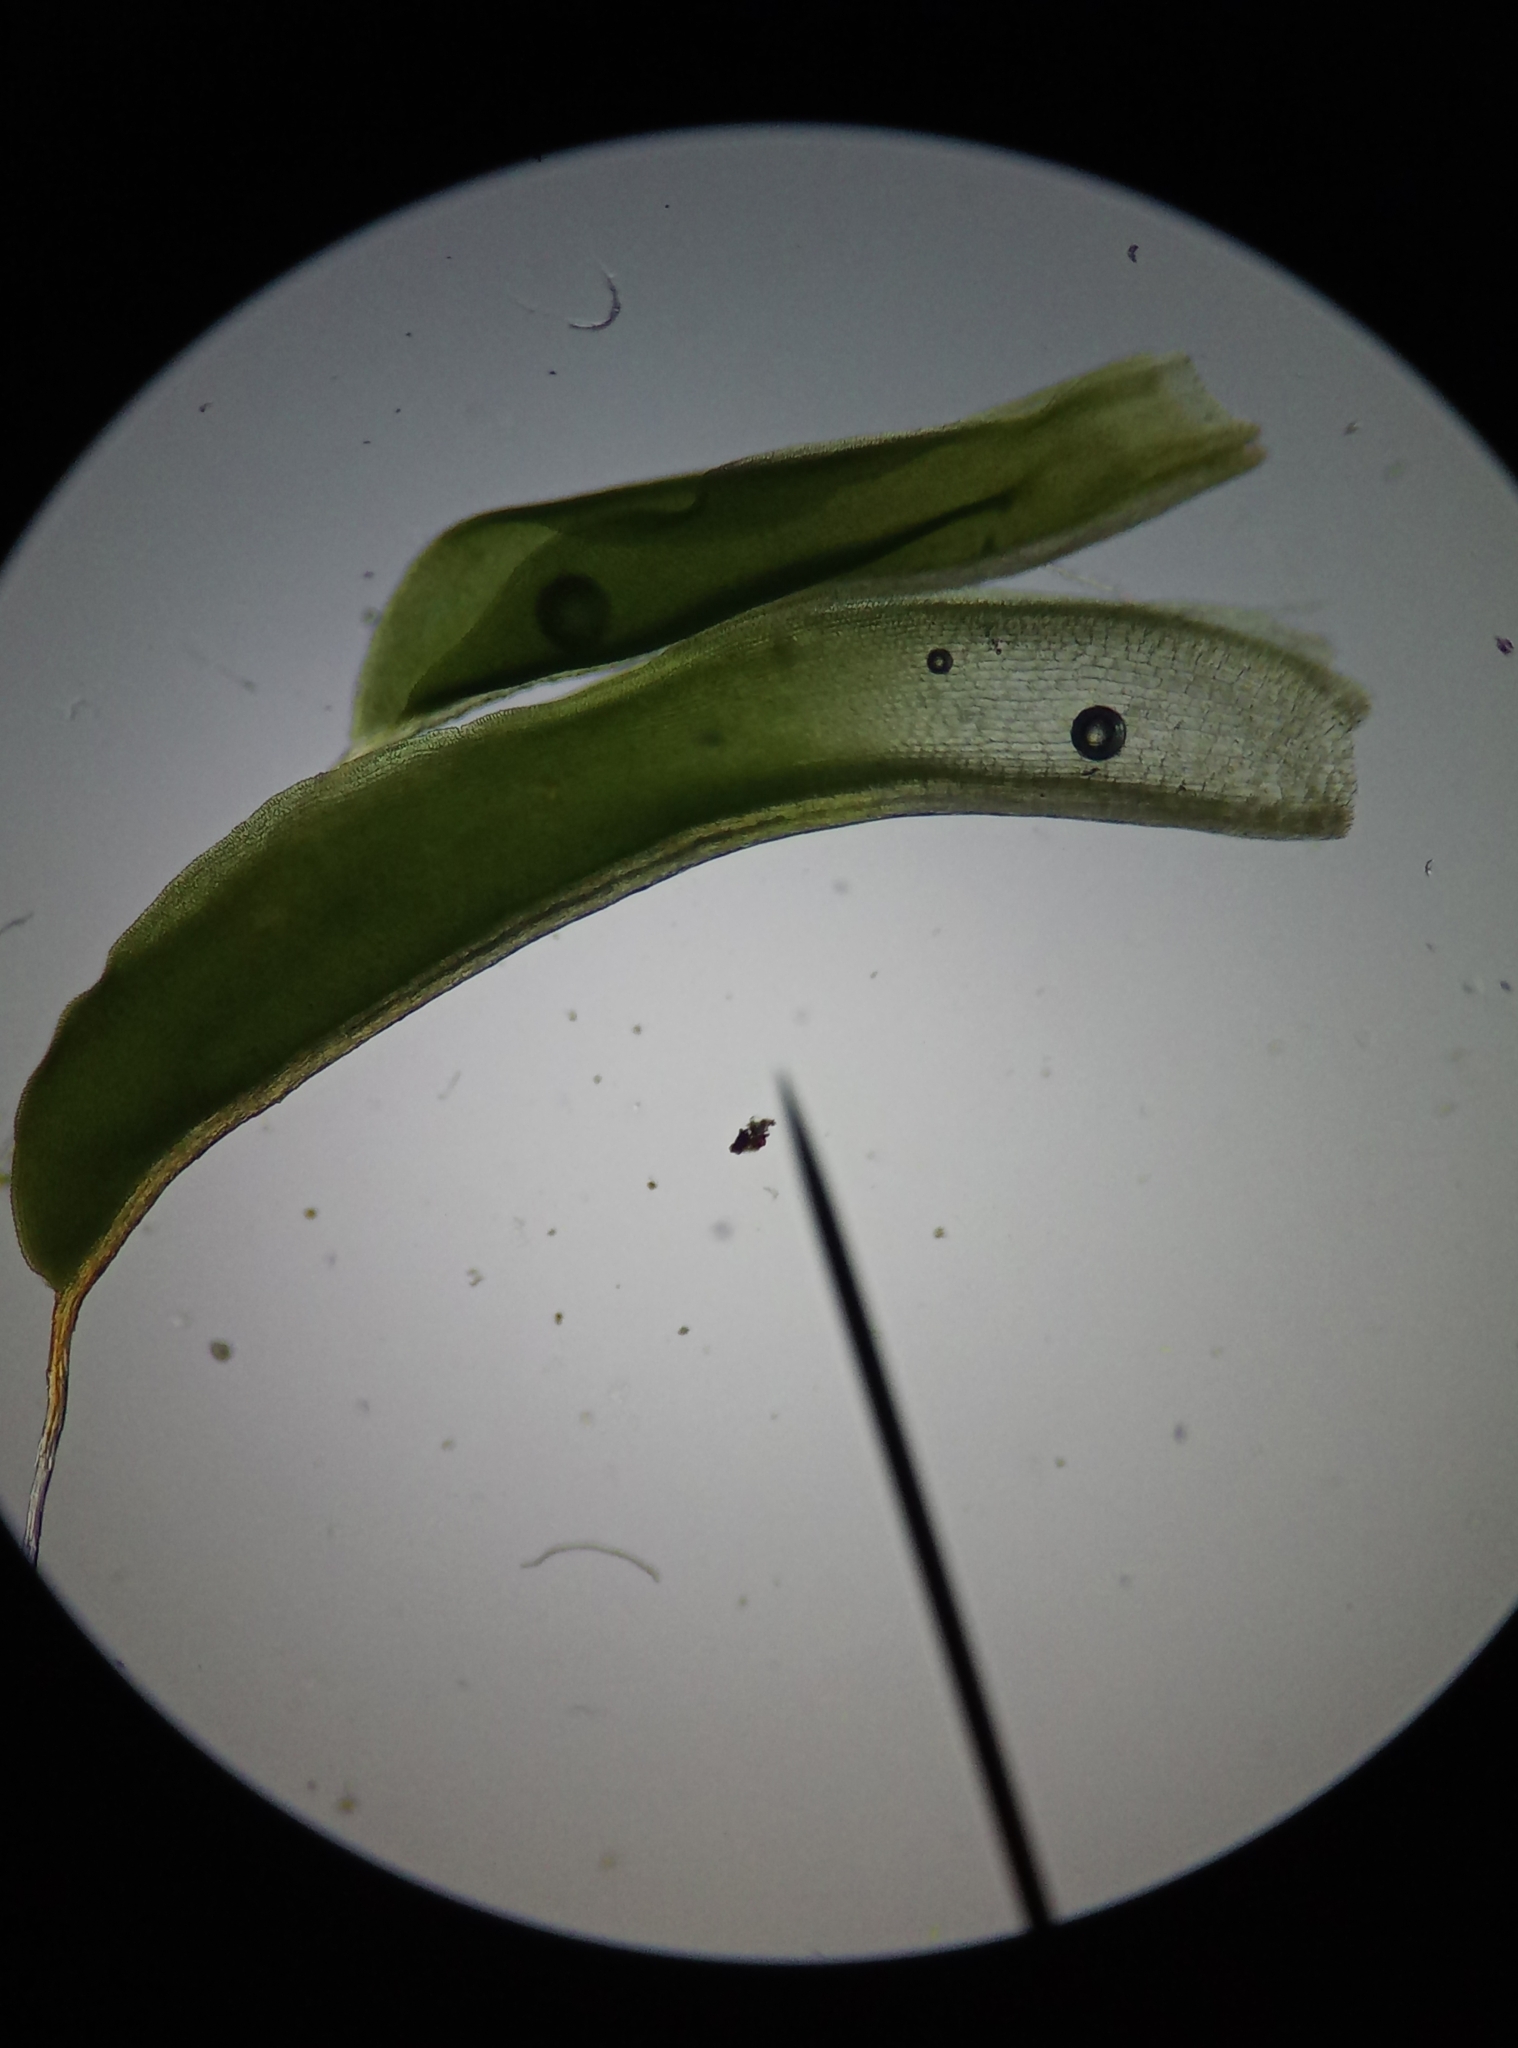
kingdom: Plantae
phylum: Bryophyta
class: Bryopsida
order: Pottiales
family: Pottiaceae
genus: Syntrichia
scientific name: Syntrichia laevipila
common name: Small hairy screw-moss
